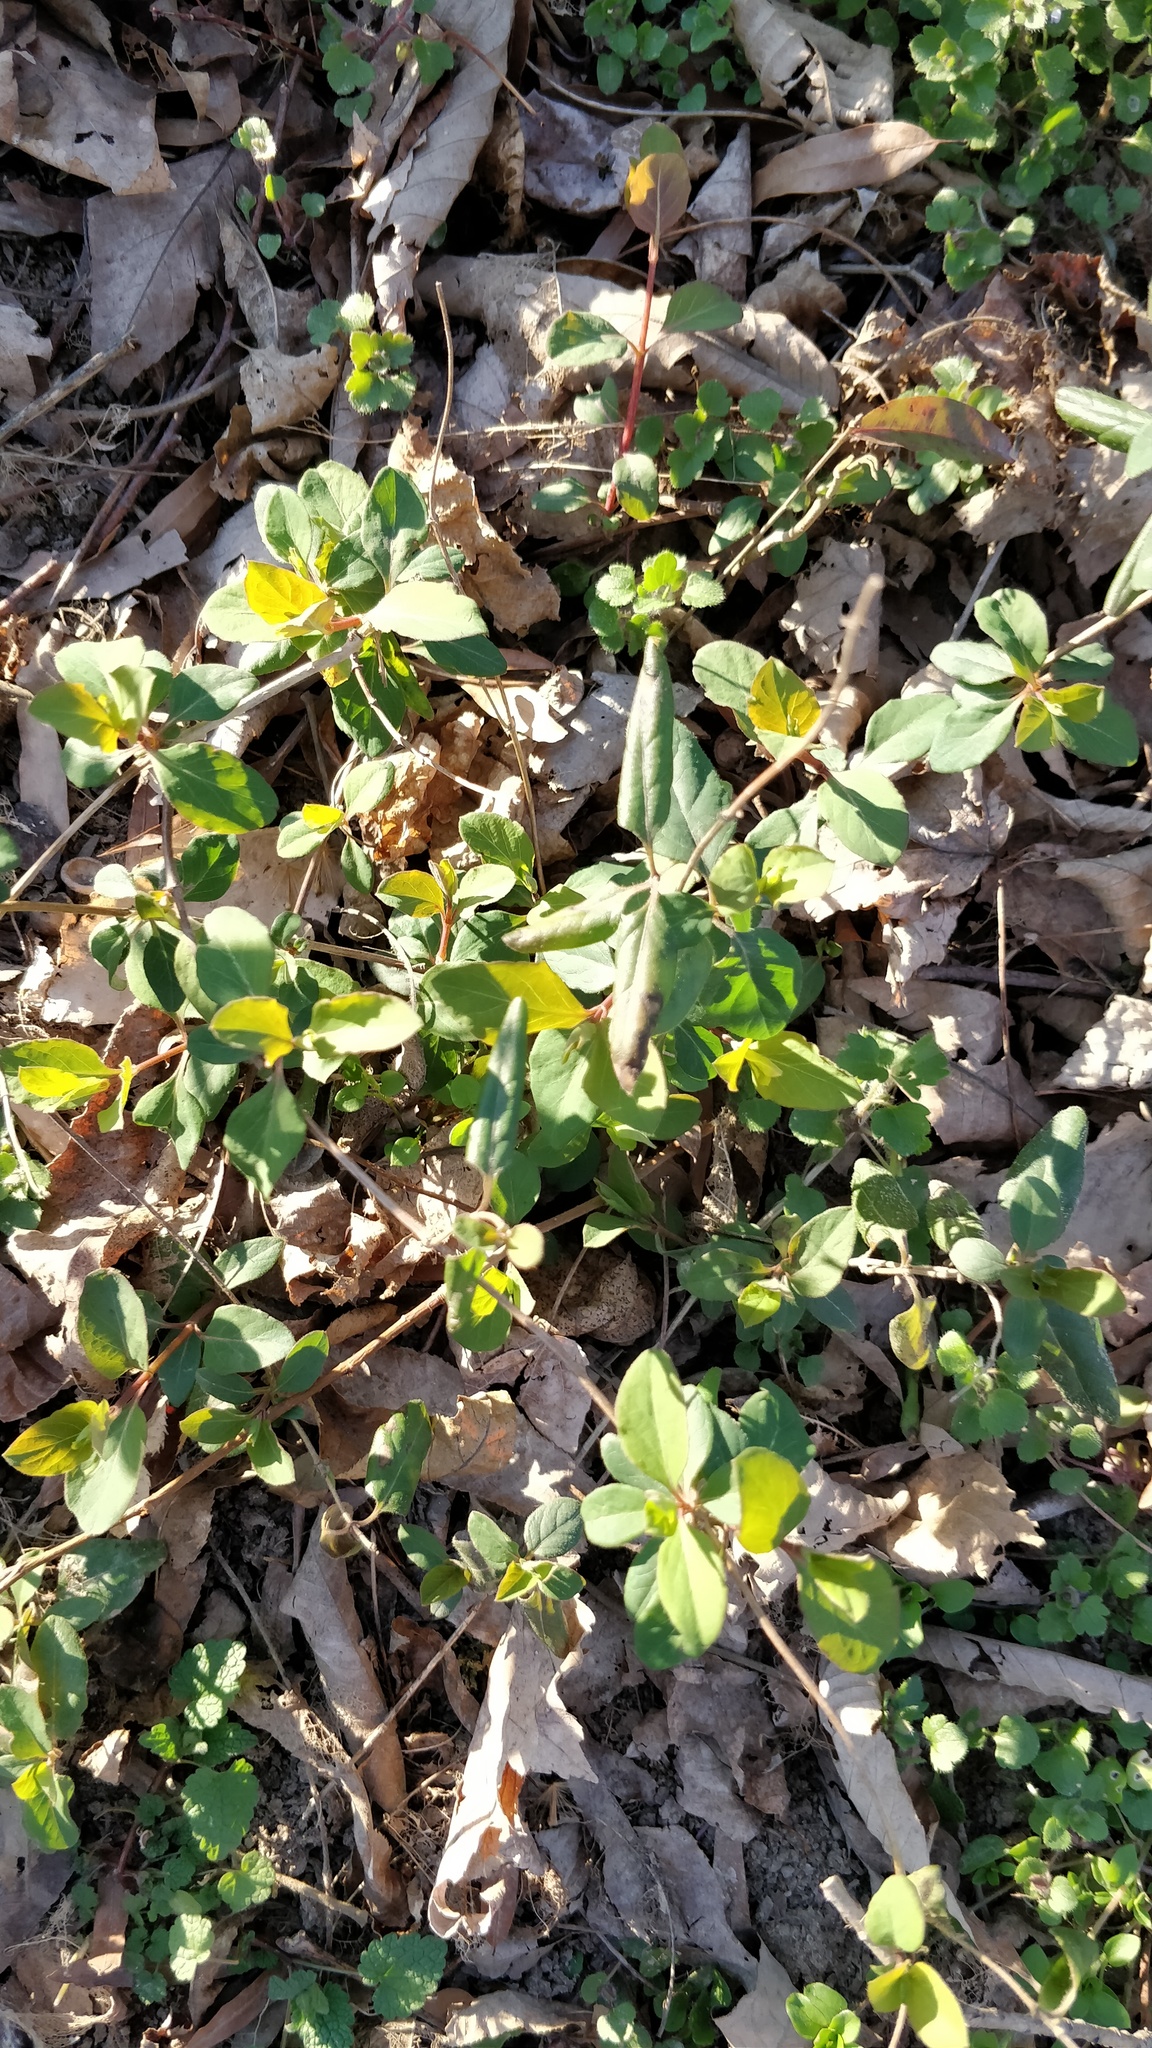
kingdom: Plantae
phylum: Tracheophyta
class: Magnoliopsida
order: Dipsacales
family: Caprifoliaceae
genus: Lonicera
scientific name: Lonicera japonica
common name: Japanese honeysuckle
